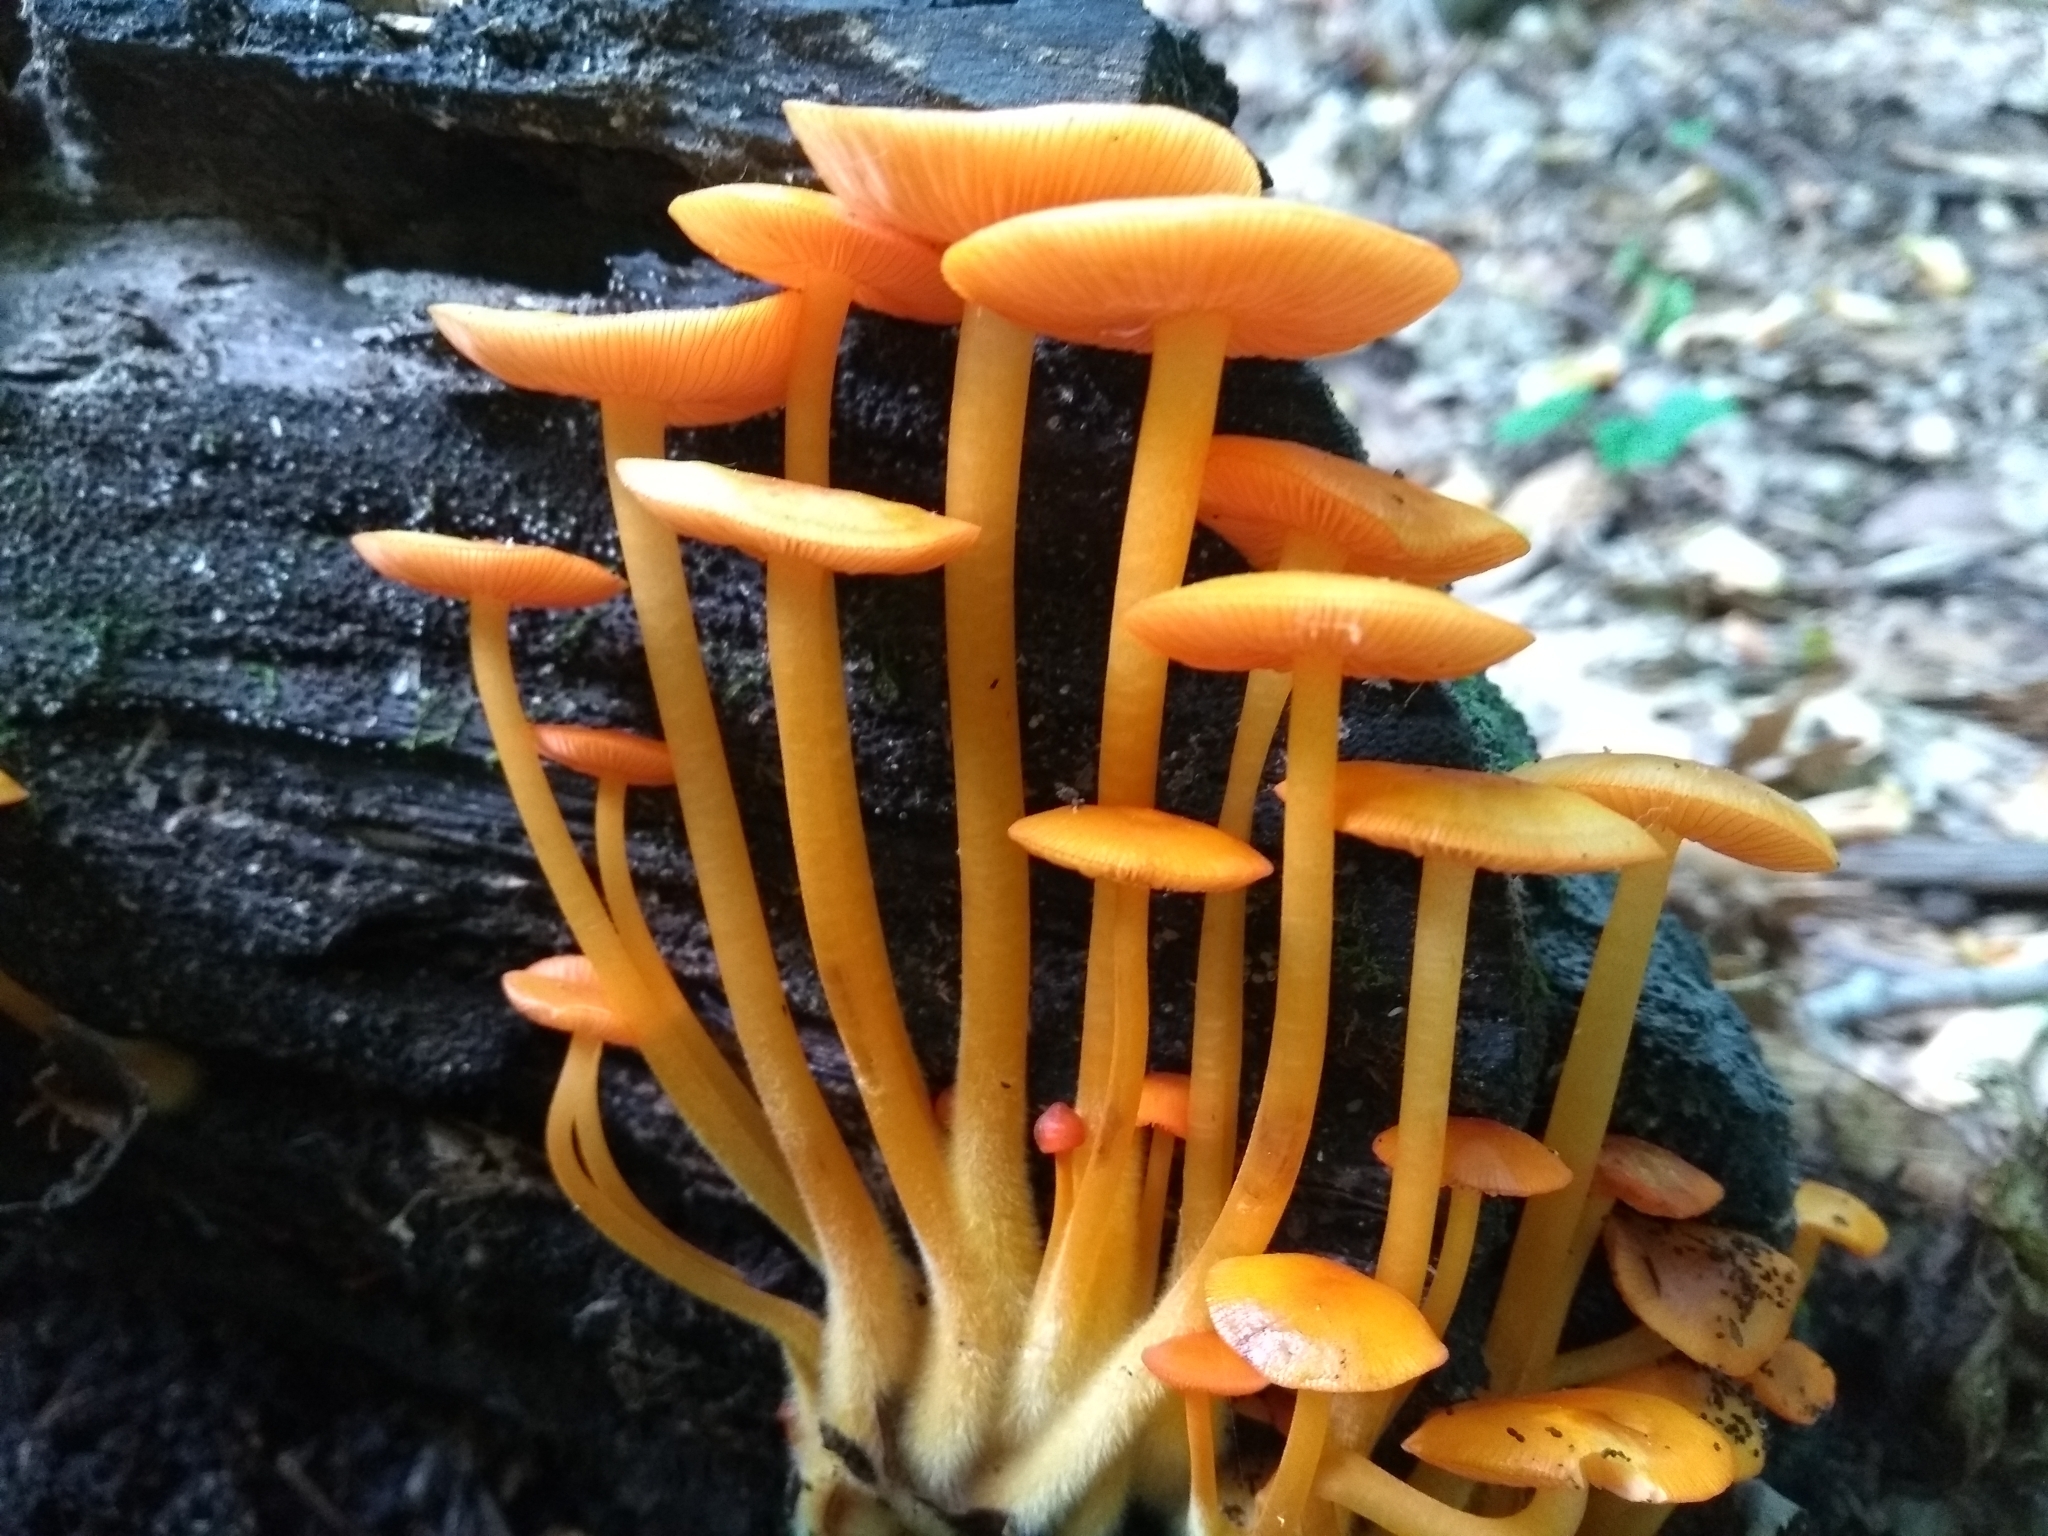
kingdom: Fungi
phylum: Basidiomycota
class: Agaricomycetes
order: Agaricales
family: Mycenaceae
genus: Mycena
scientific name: Mycena leaiana
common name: Orange mycena
